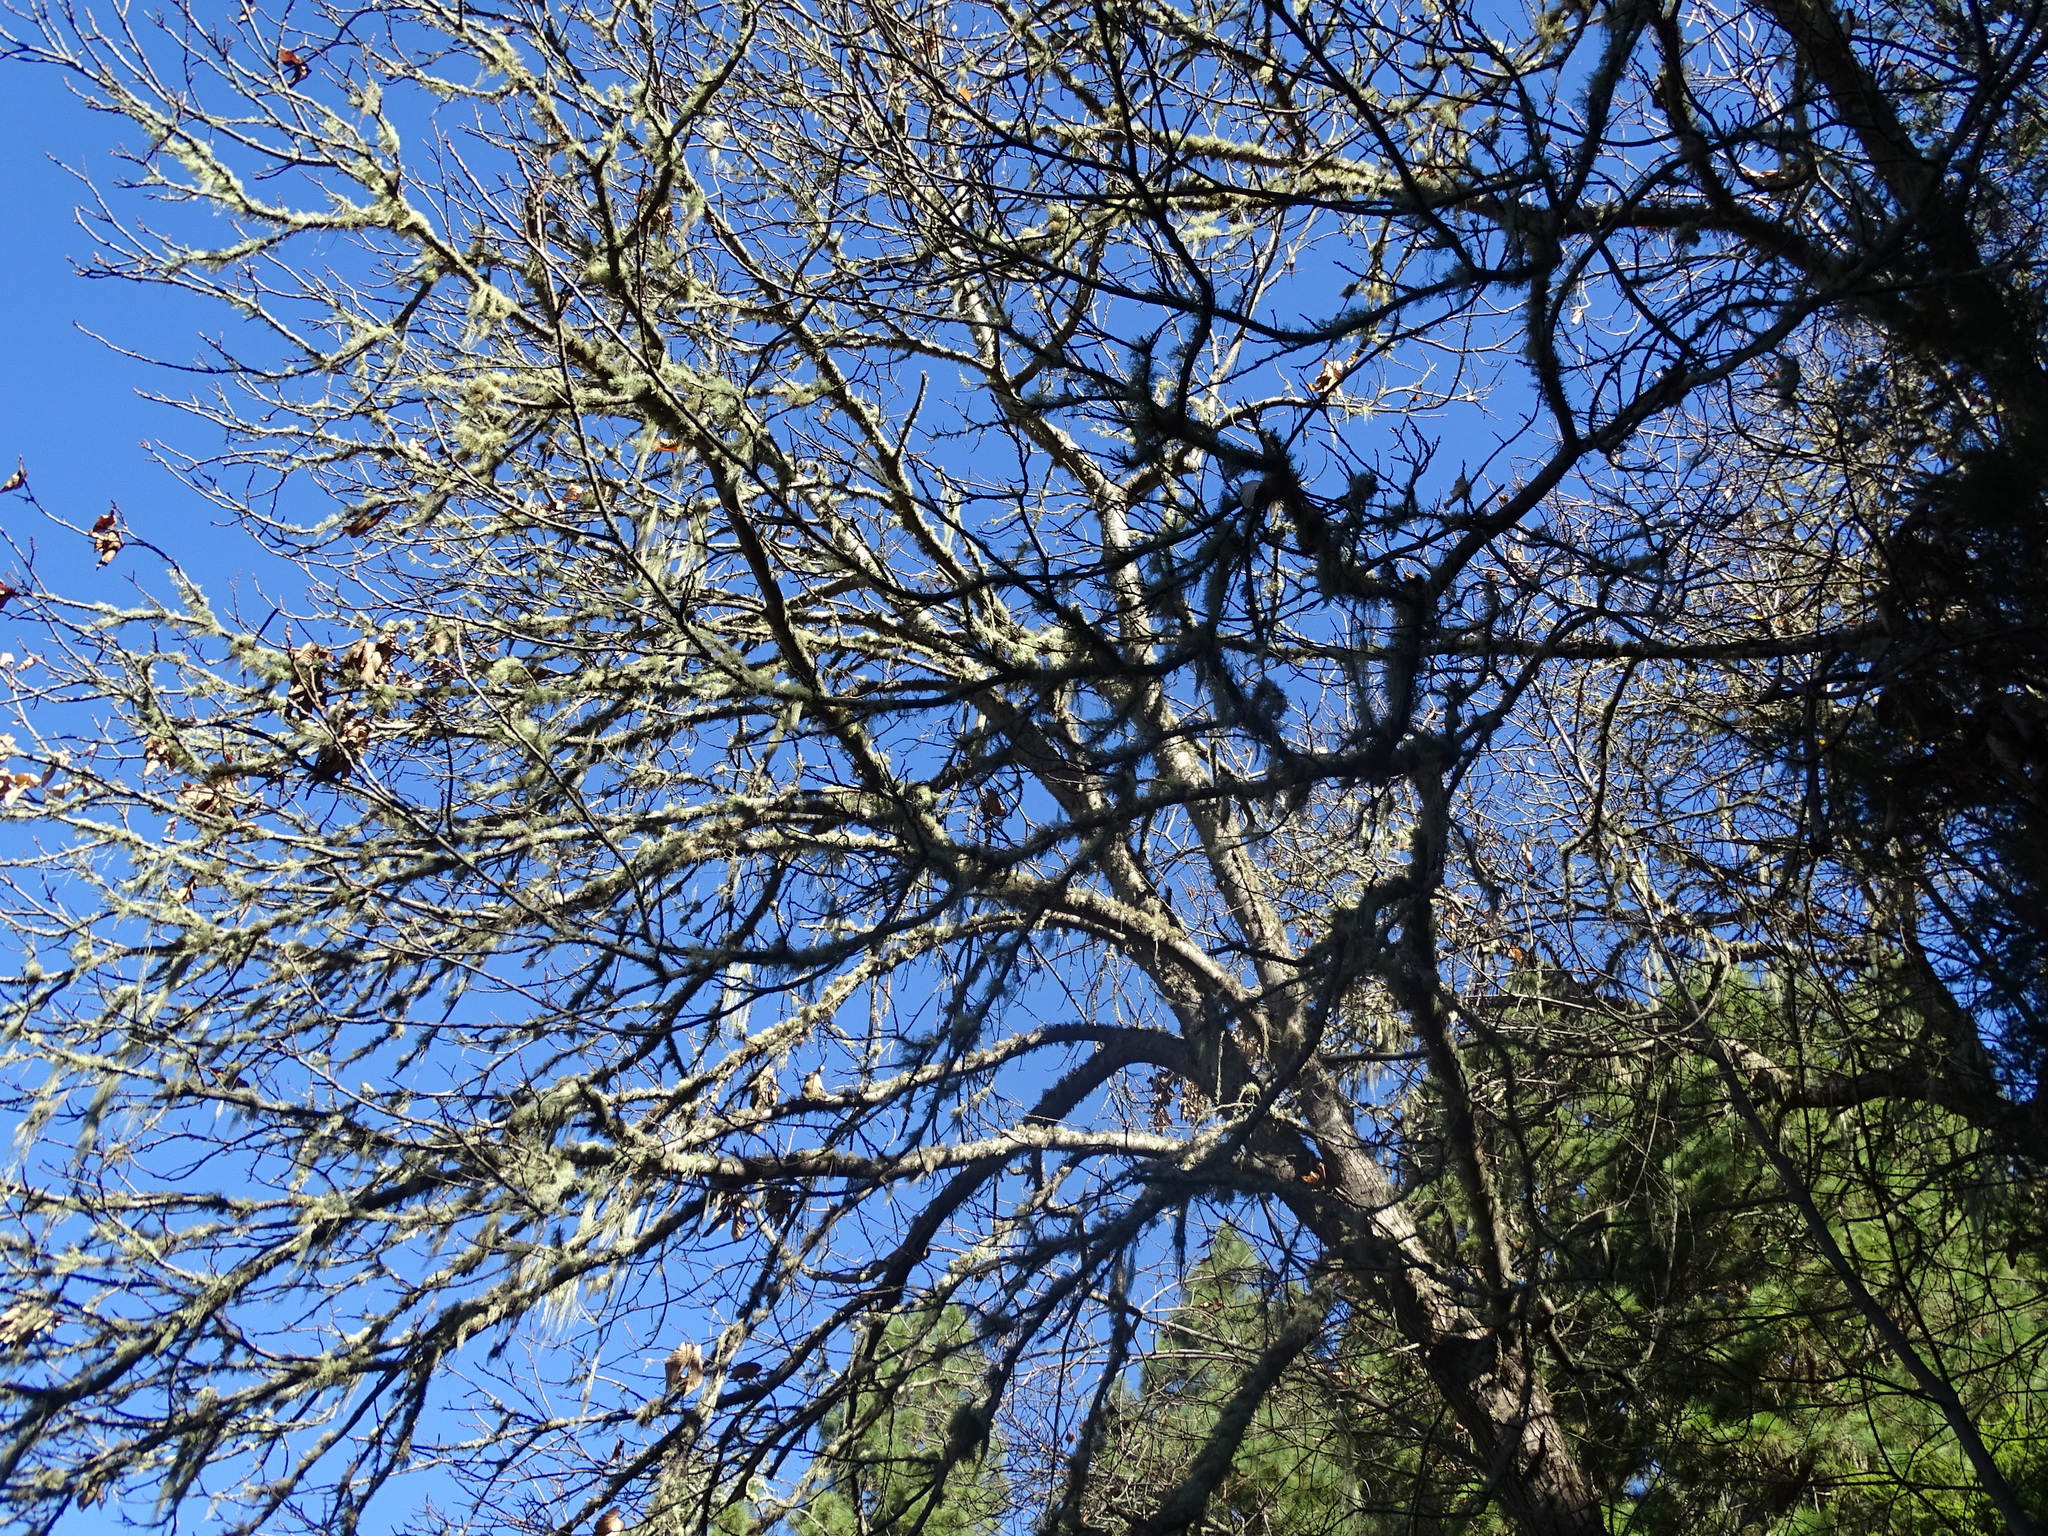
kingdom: Plantae
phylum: Tracheophyta
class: Magnoliopsida
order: Fagales
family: Fagaceae
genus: Castanea
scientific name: Castanea sativa
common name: Sweet chestnut
